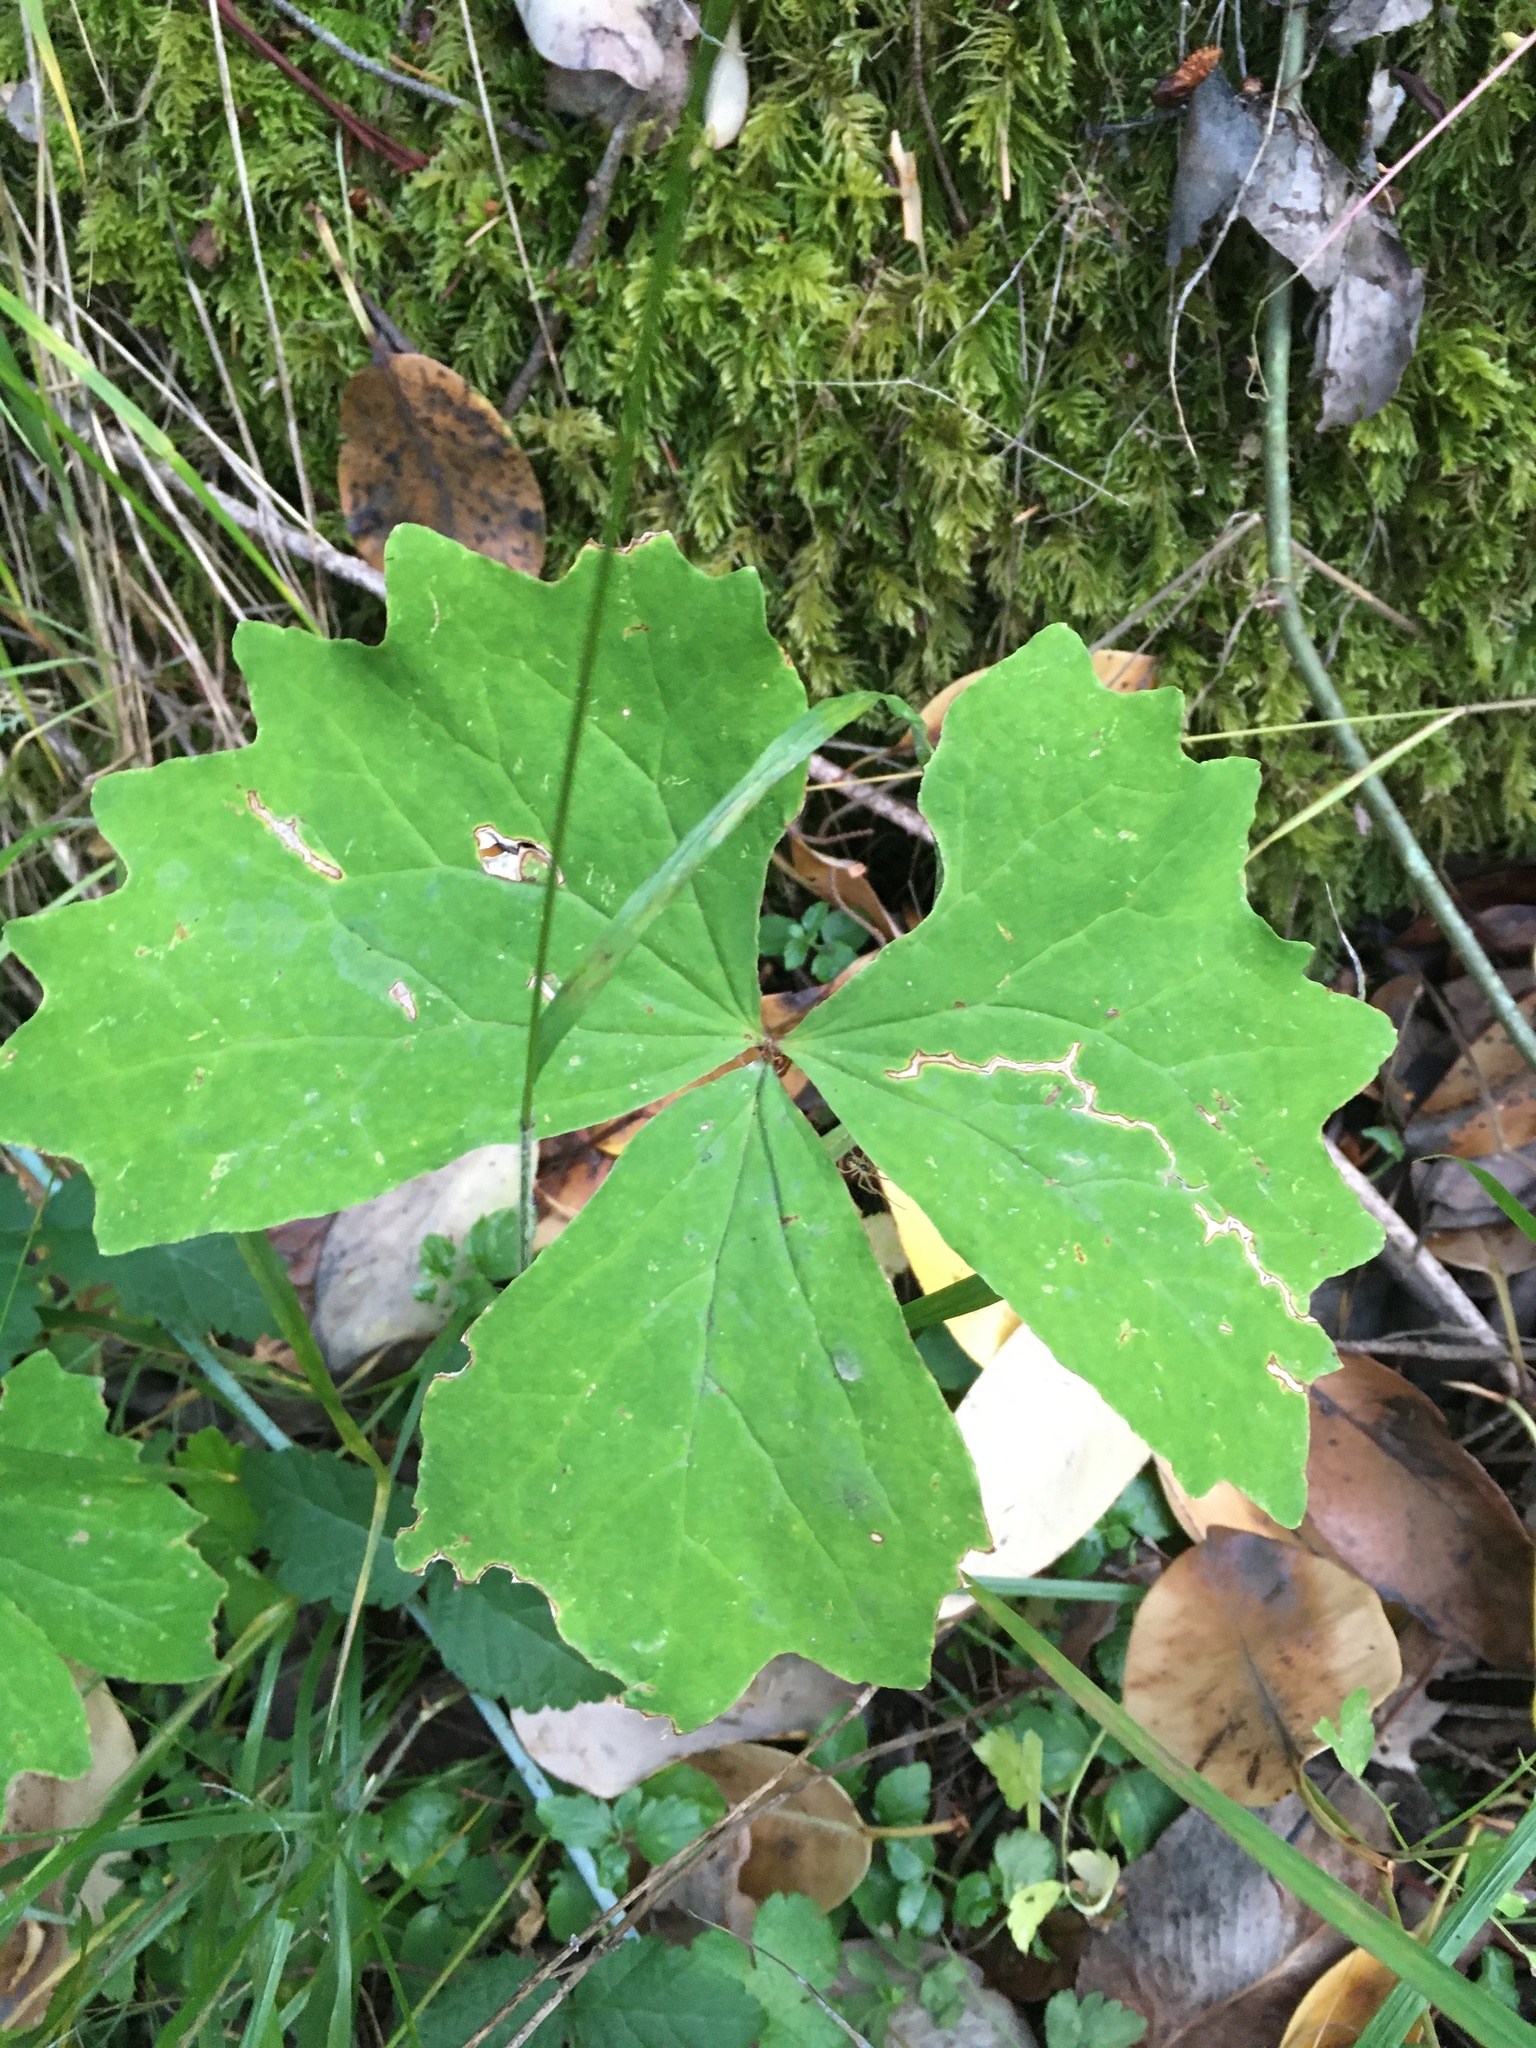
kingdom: Plantae
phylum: Tracheophyta
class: Magnoliopsida
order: Ranunculales
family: Berberidaceae
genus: Achlys
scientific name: Achlys triphylla
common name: Vanilla-leaf
